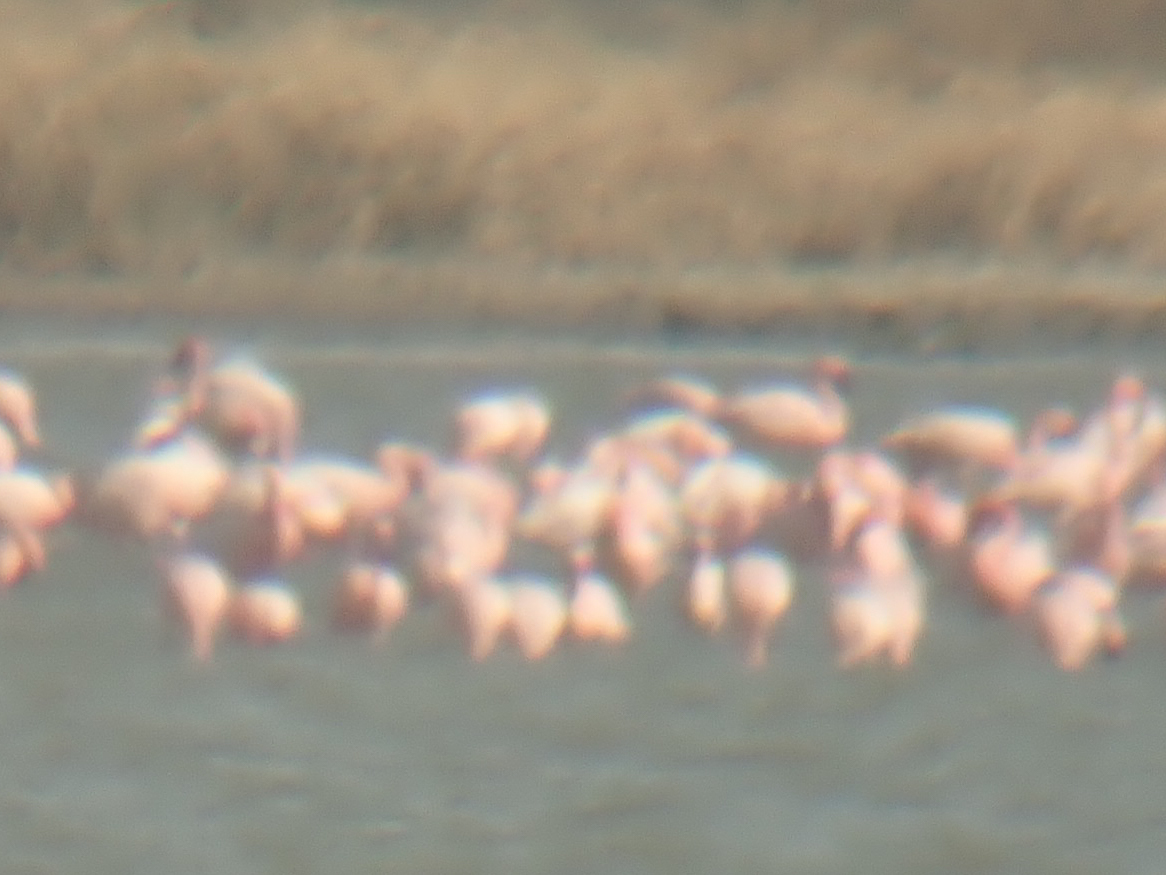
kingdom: Animalia
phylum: Chordata
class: Aves
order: Phoenicopteriformes
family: Phoenicopteridae
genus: Phoeniconaias
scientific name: Phoeniconaias minor
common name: Lesser flamingo
